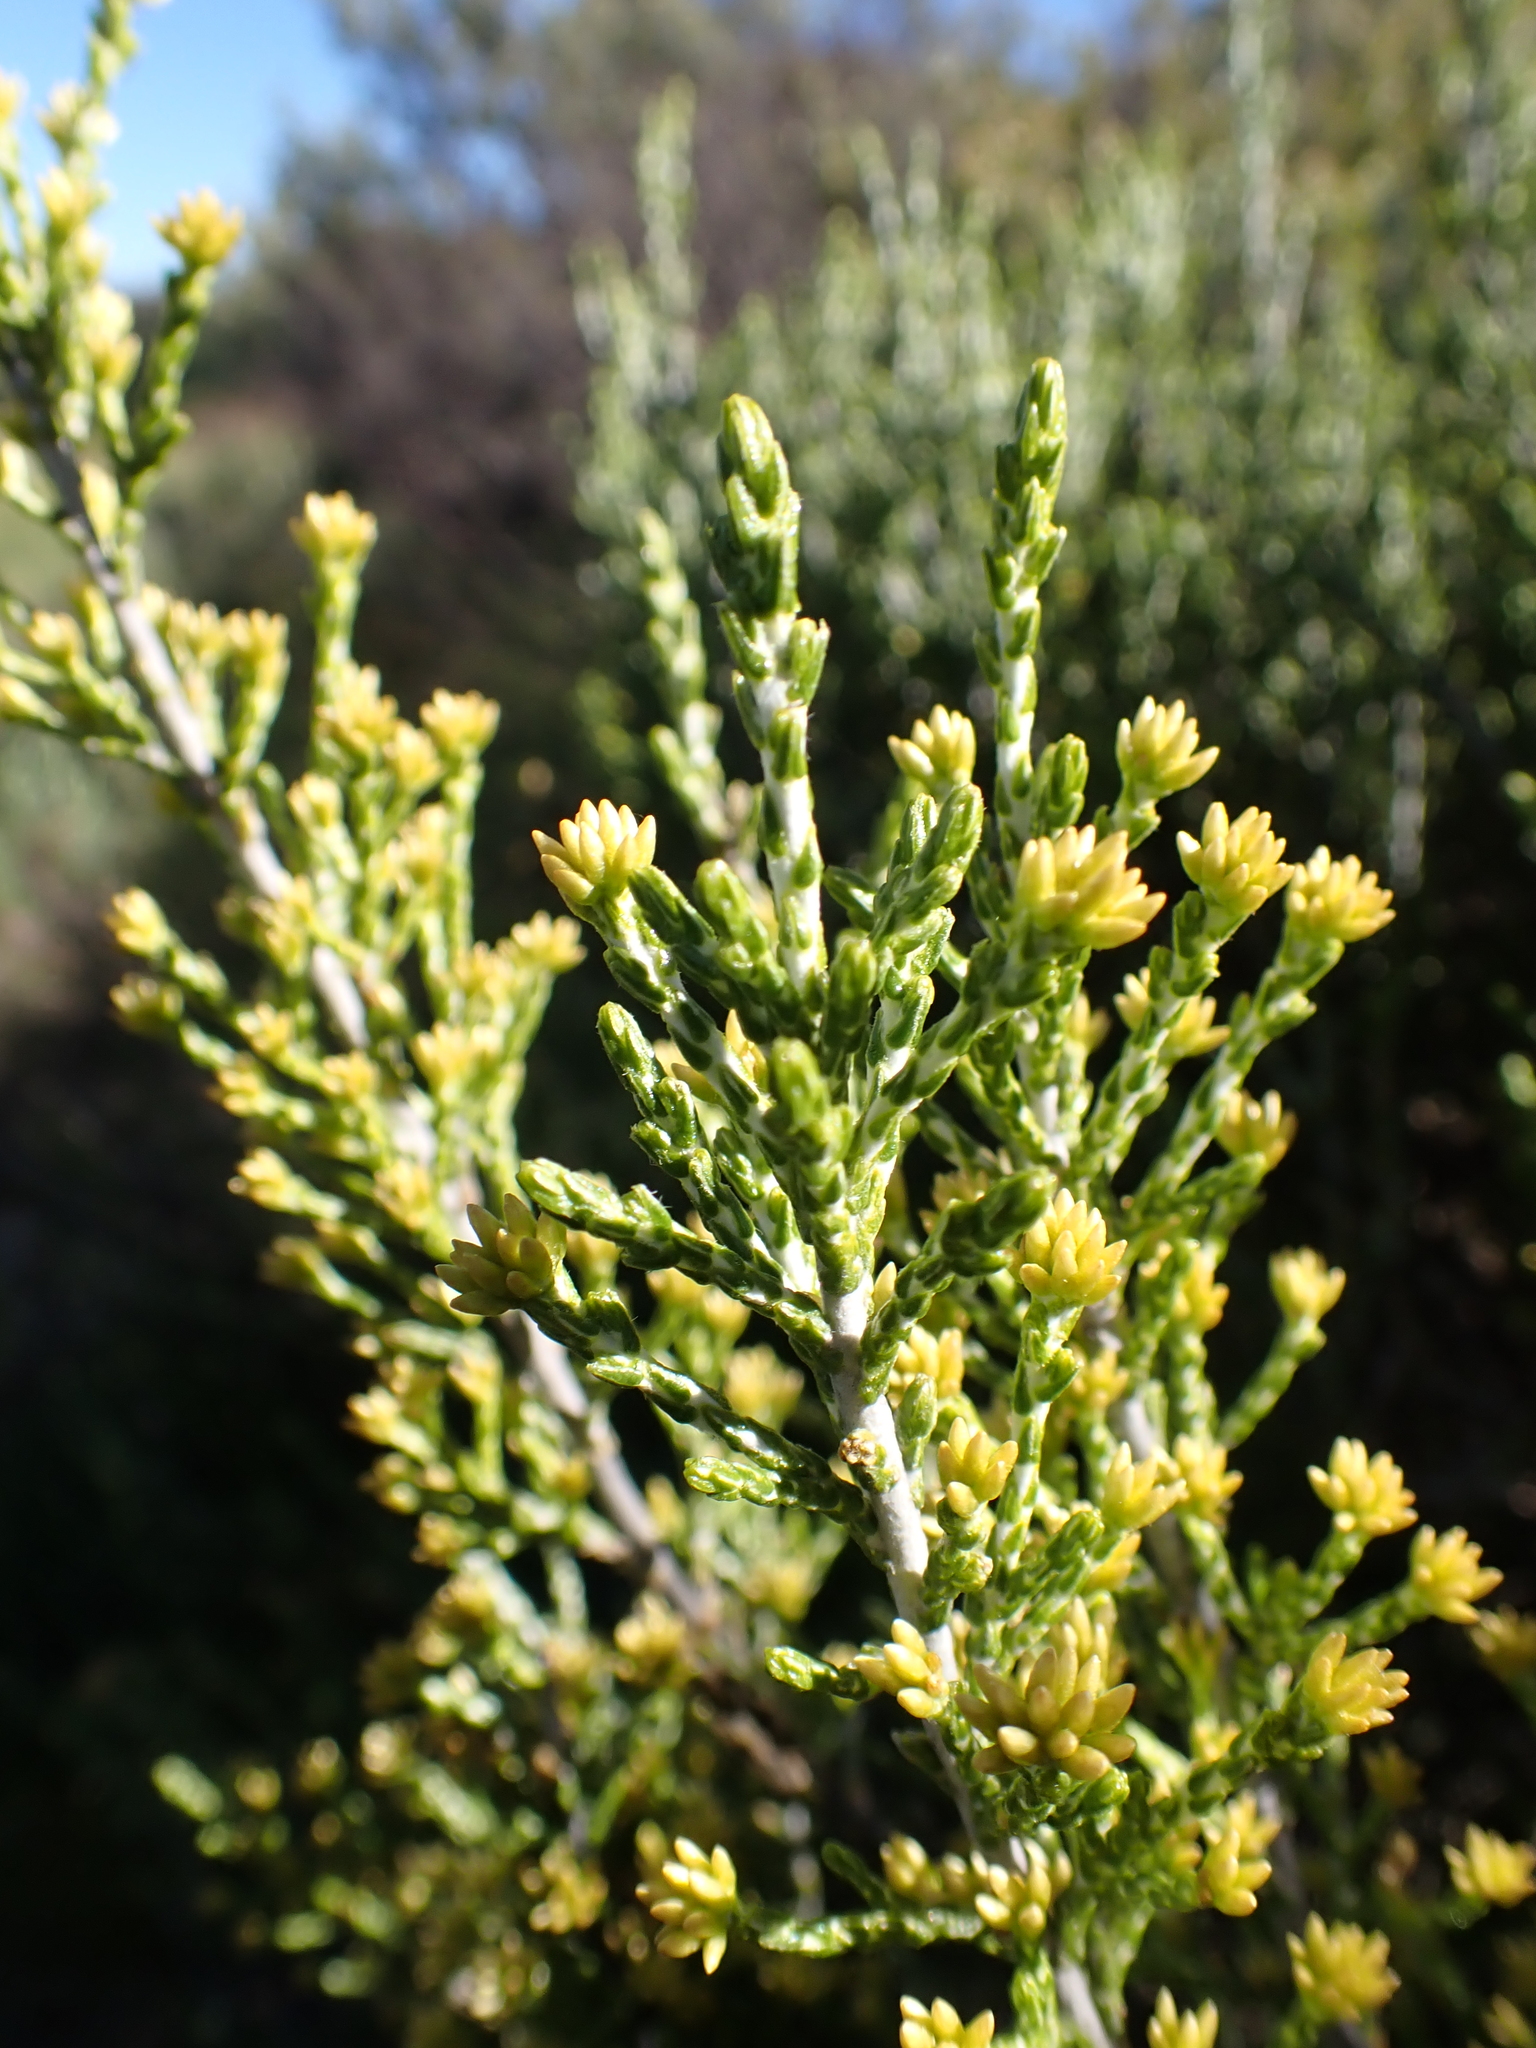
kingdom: Plantae
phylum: Tracheophyta
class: Magnoliopsida
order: Asterales
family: Asteraceae
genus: Ozothamnus
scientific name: Ozothamnus cupressoides
